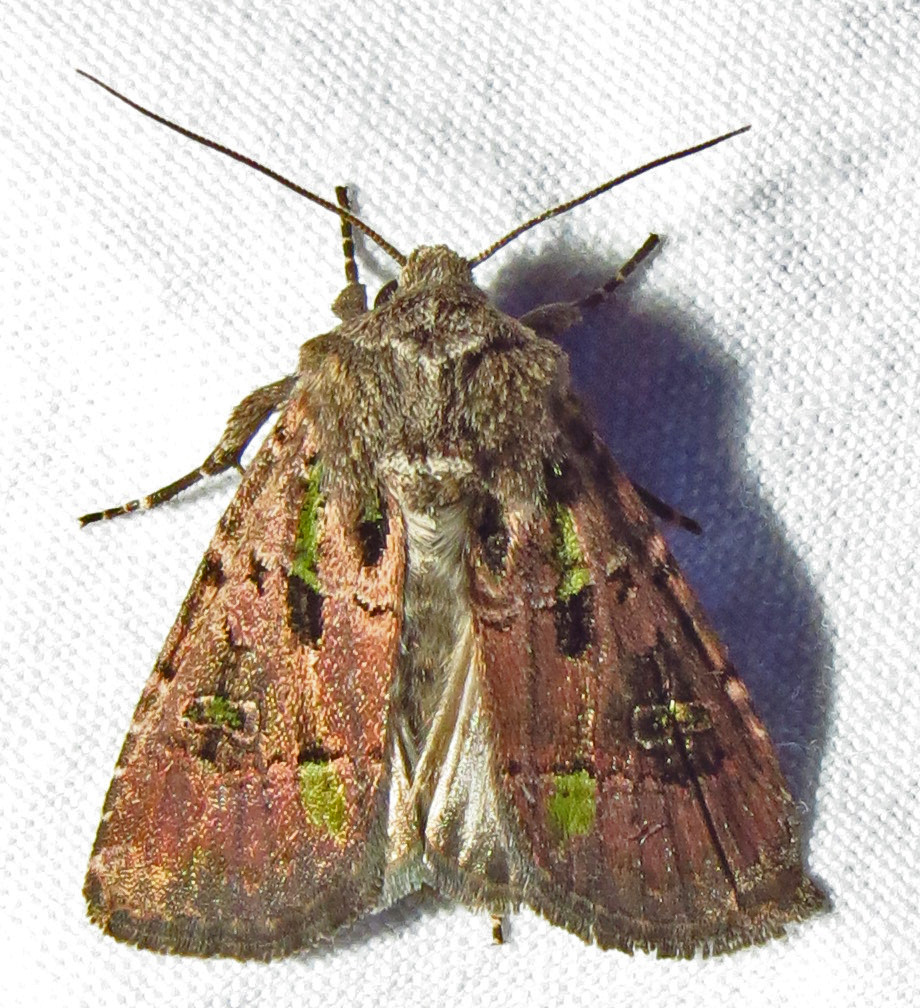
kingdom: Animalia
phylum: Arthropoda
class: Insecta
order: Lepidoptera
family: Noctuidae
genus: Lacinipolia
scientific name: Lacinipolia renigera
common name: Kidney-spotted minor
